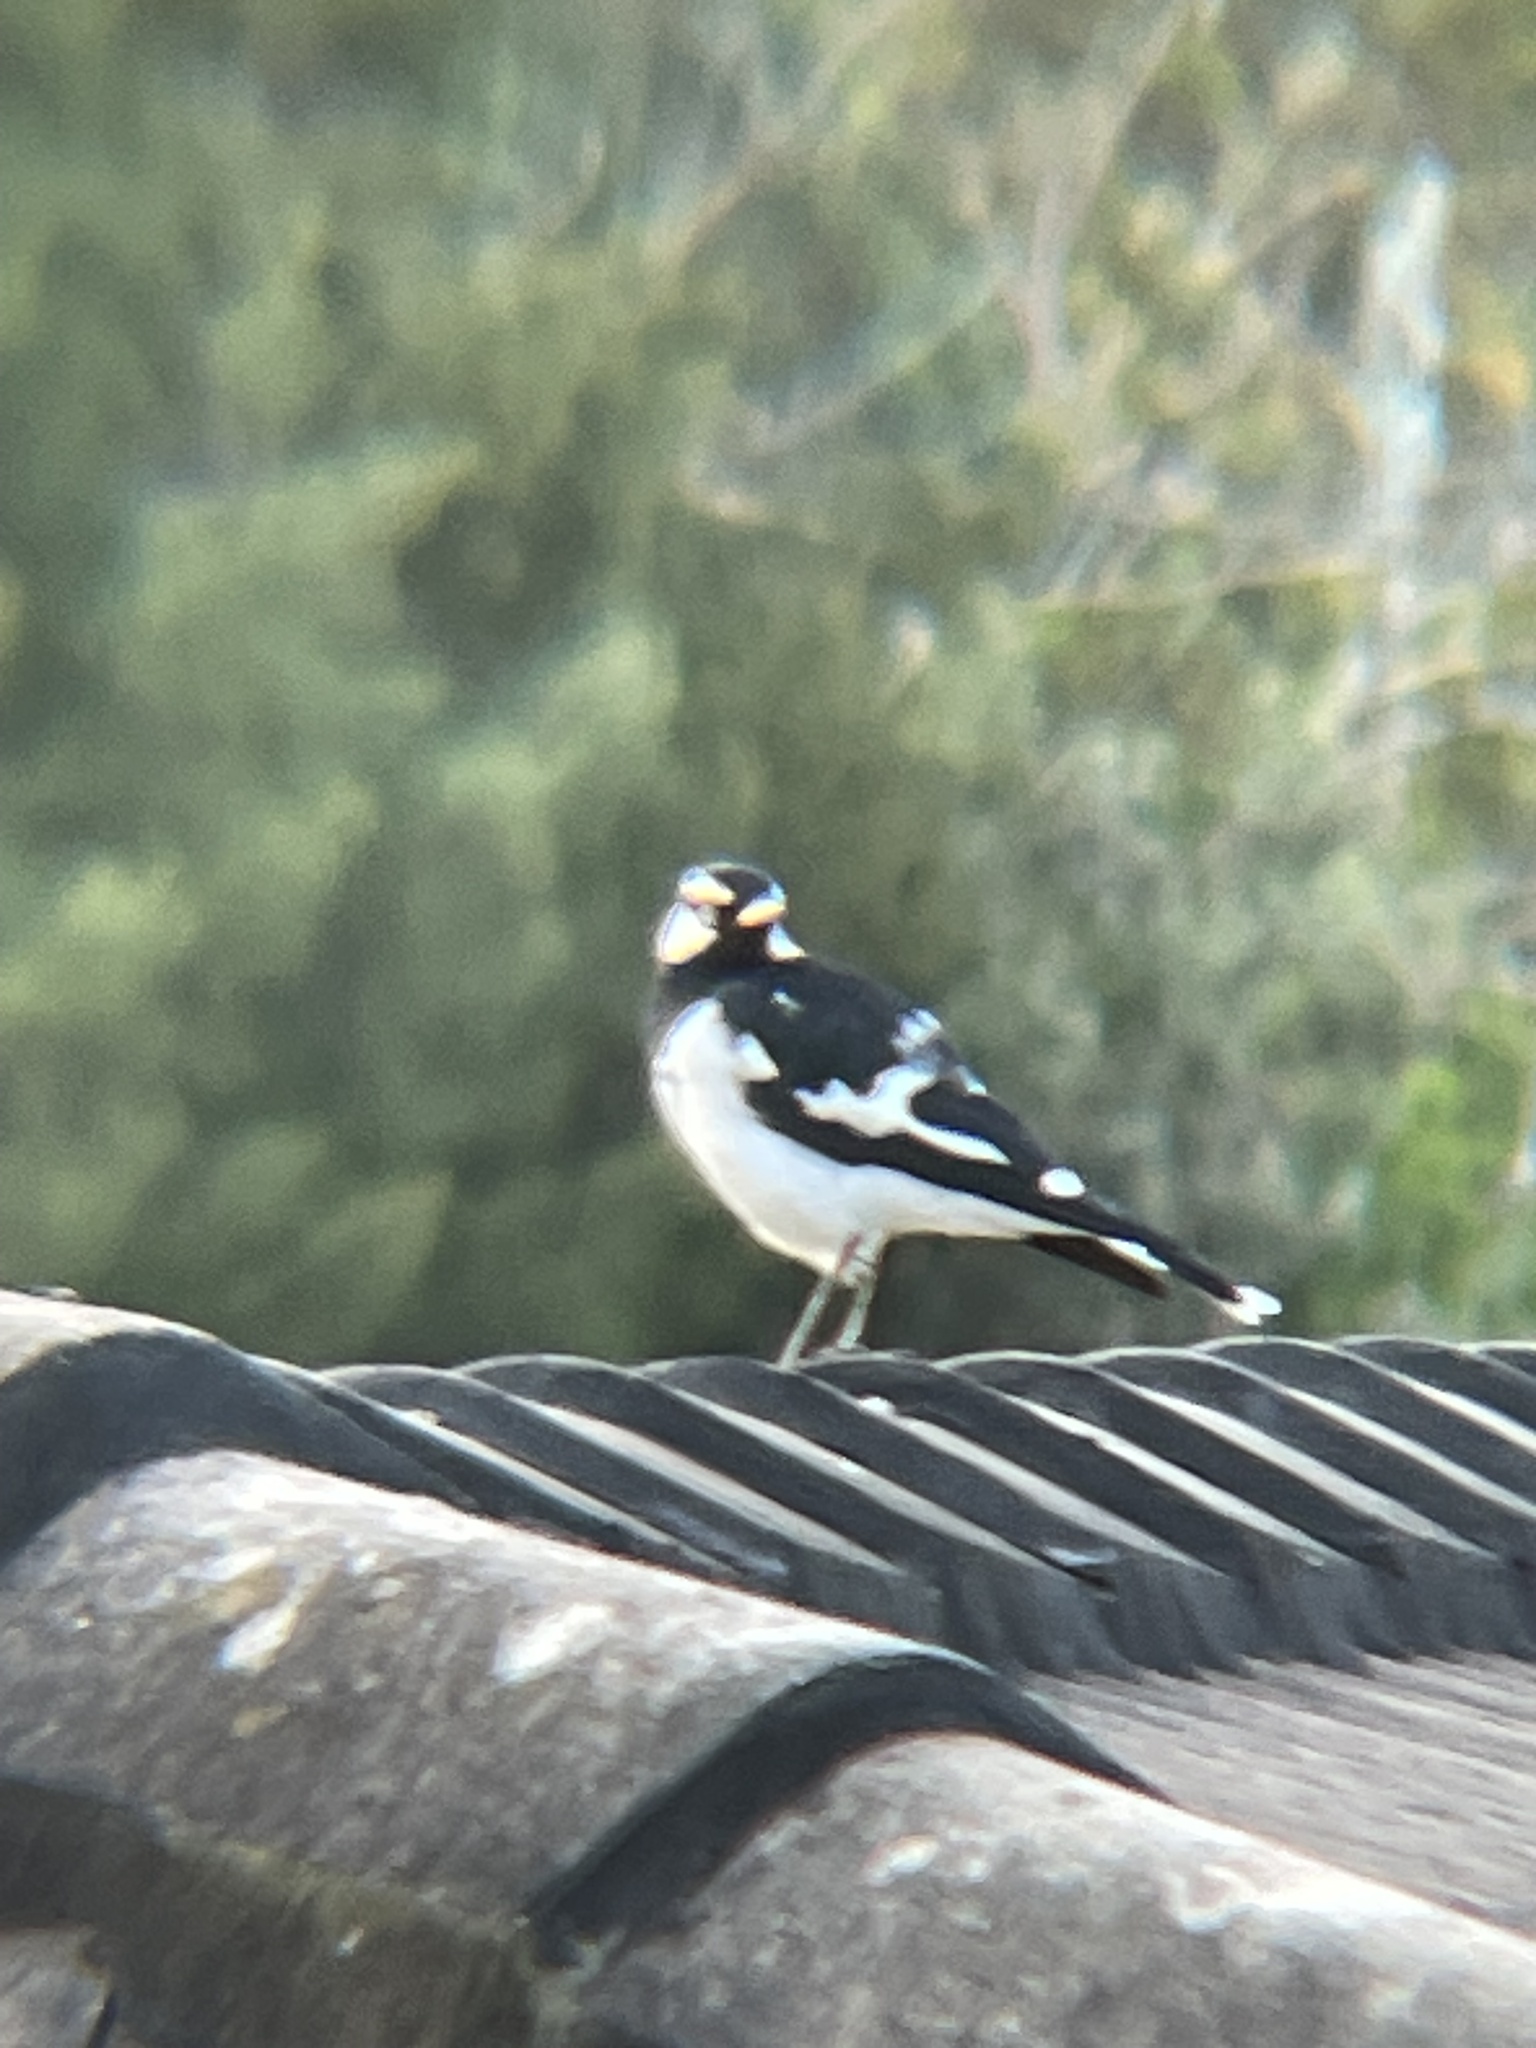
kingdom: Animalia
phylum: Chordata
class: Aves
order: Passeriformes
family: Monarchidae
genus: Grallina
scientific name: Grallina cyanoleuca
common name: Magpie-lark
